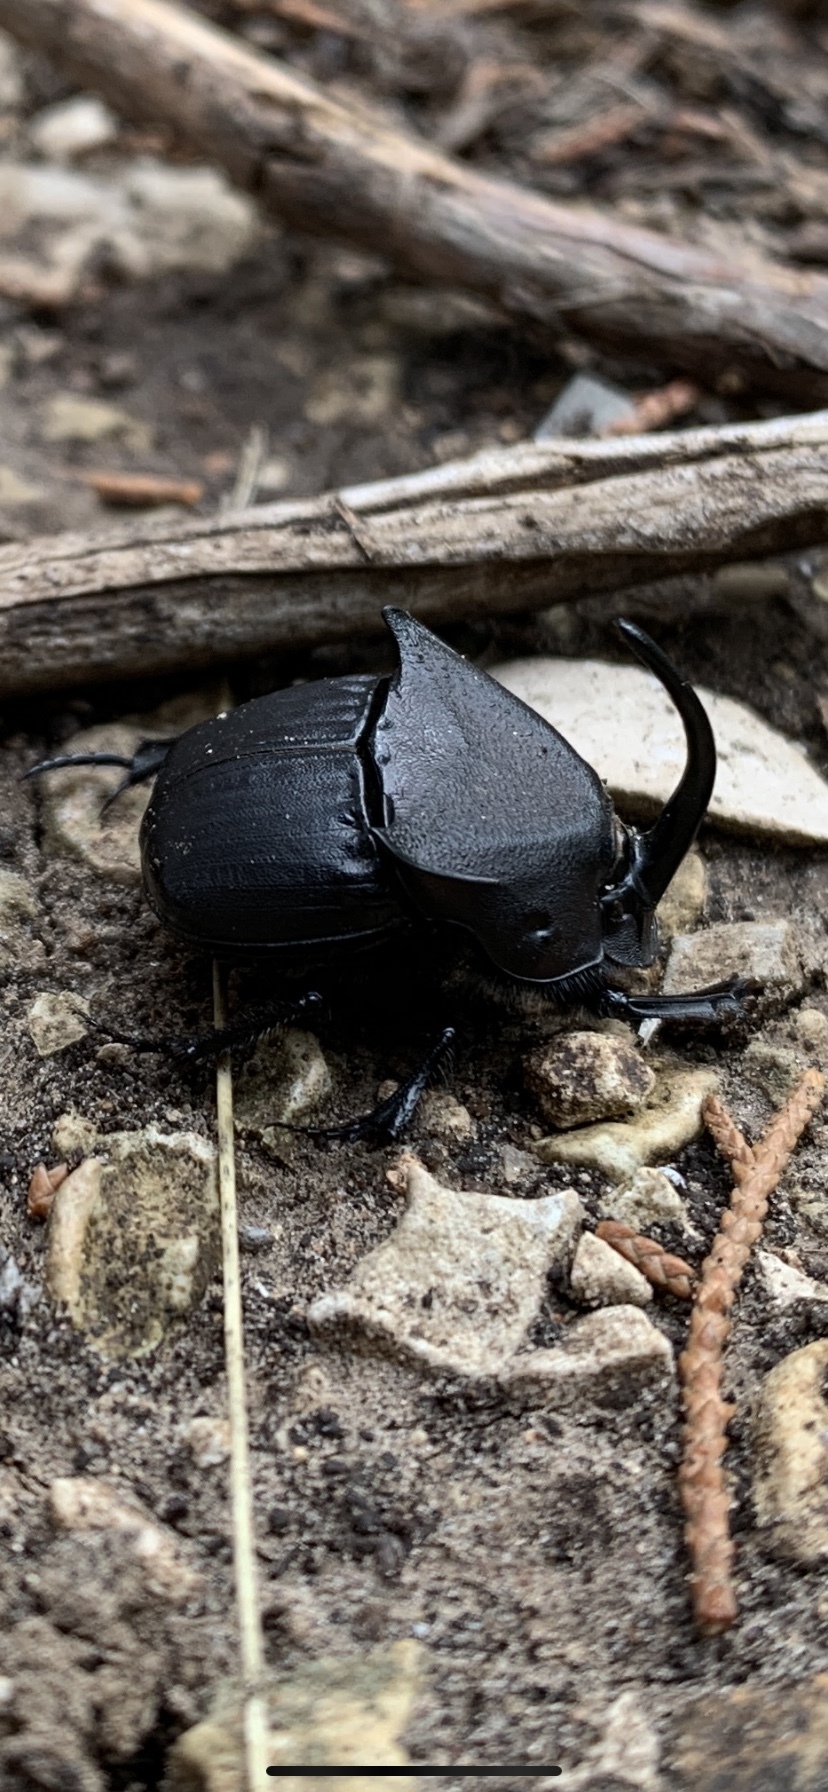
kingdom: Animalia
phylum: Arthropoda
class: Insecta
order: Coleoptera
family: Scarabaeidae
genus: Phanaeus
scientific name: Phanaeus texensis
